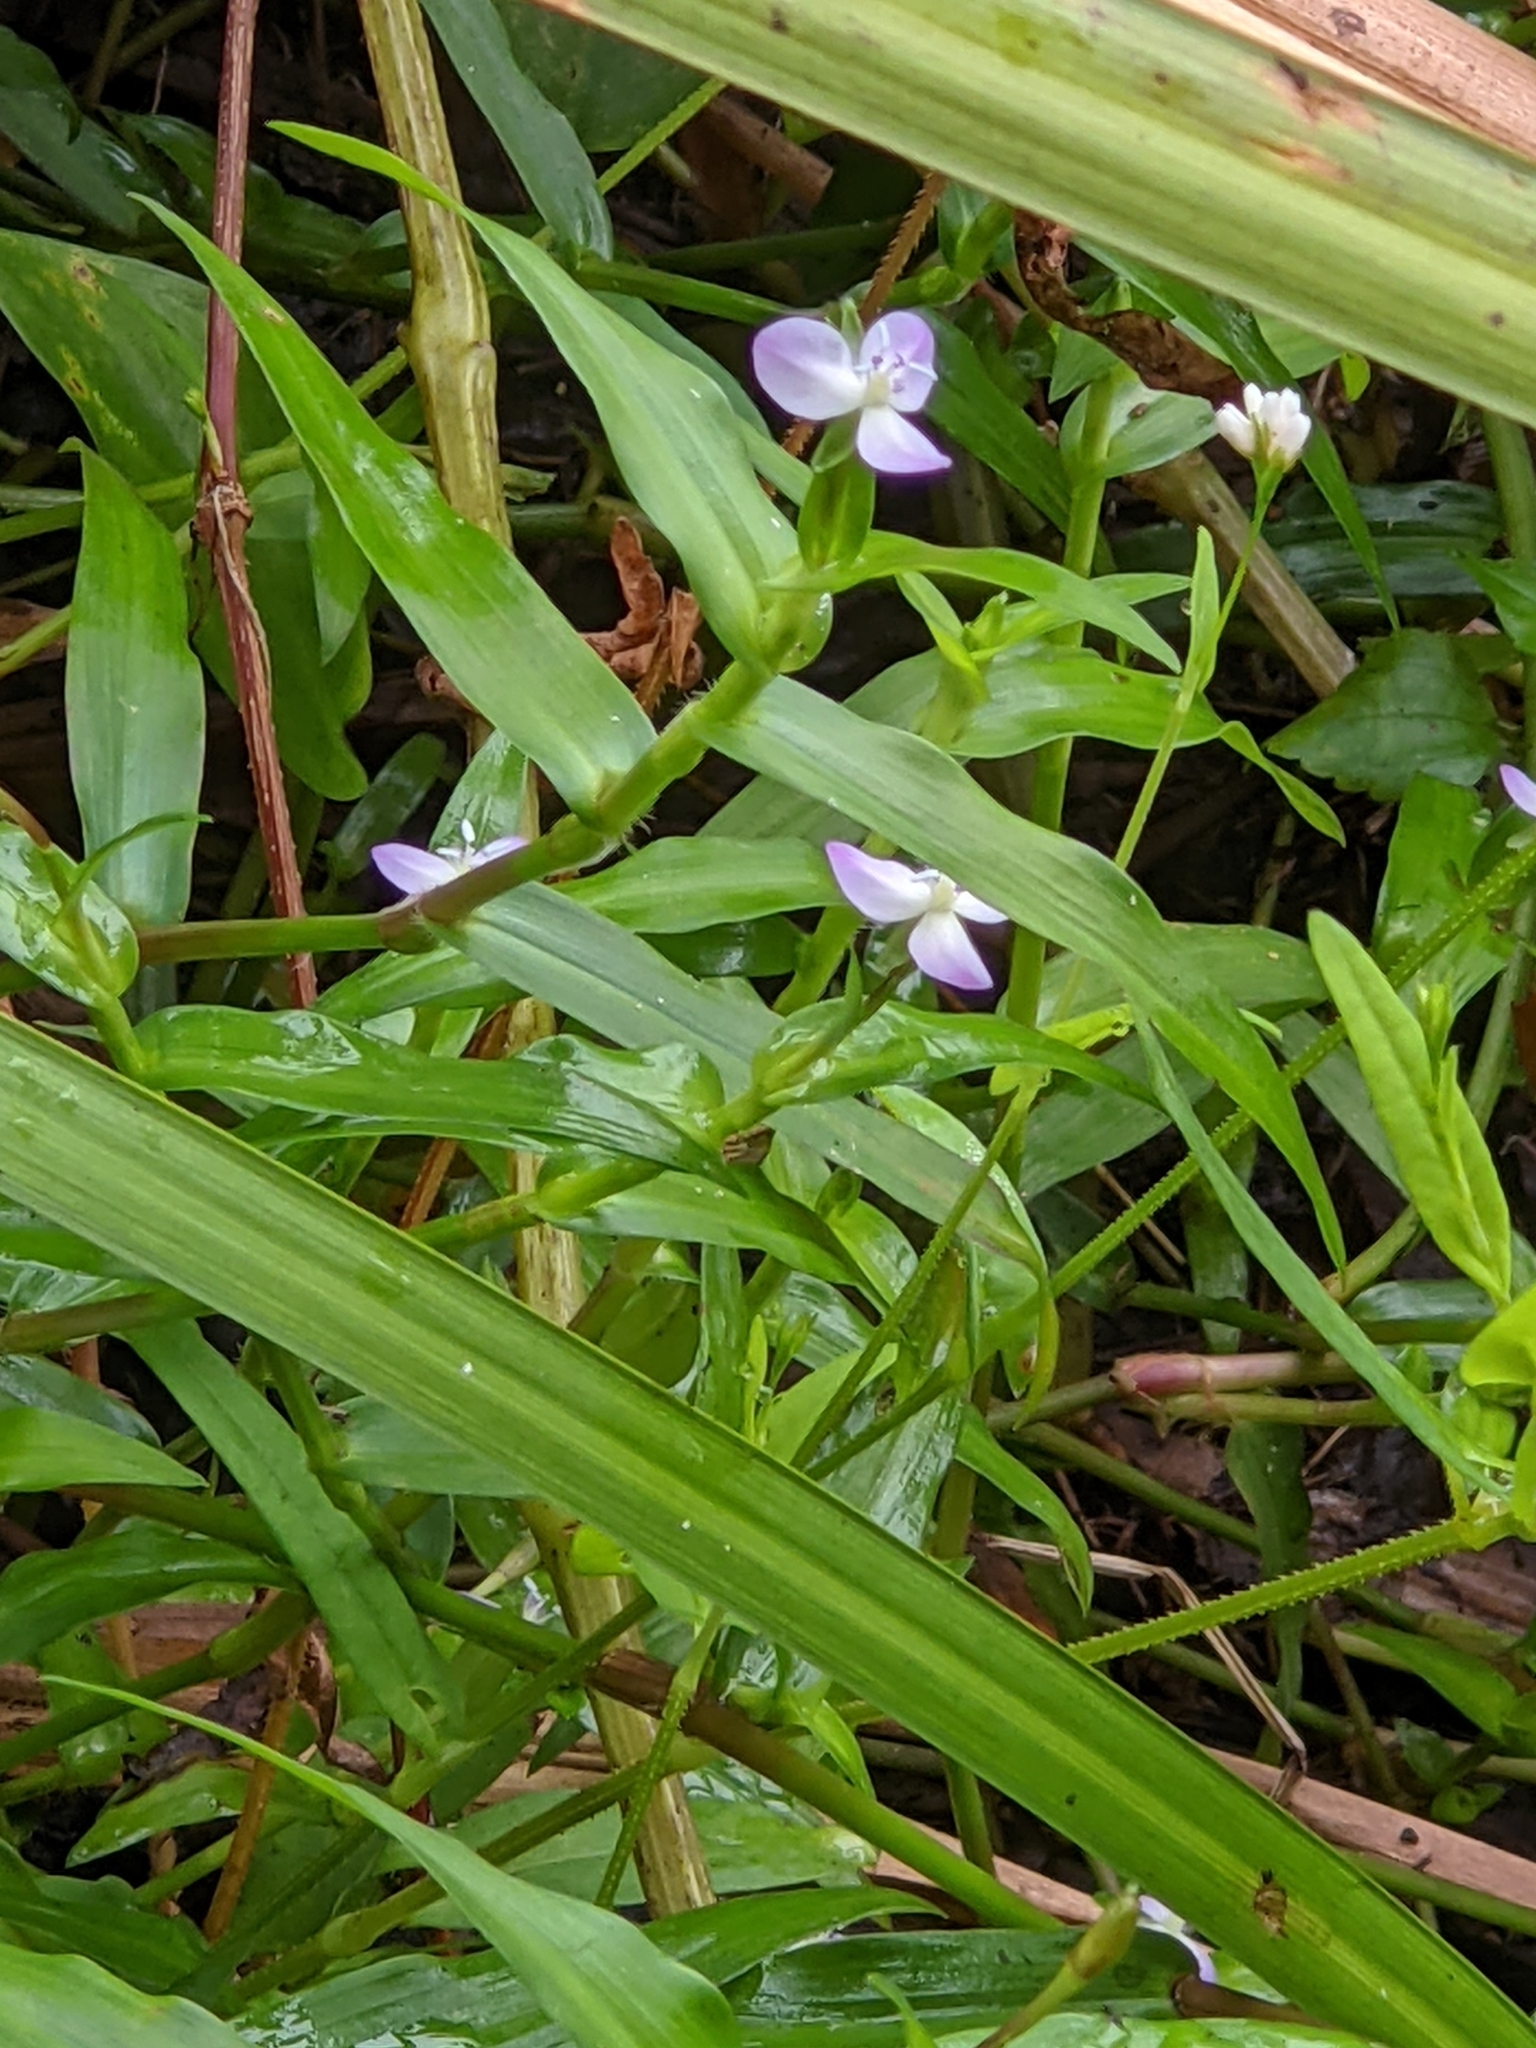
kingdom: Plantae
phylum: Tracheophyta
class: Liliopsida
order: Commelinales
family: Commelinaceae
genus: Murdannia
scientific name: Murdannia keisak
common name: Wartremoving herb
